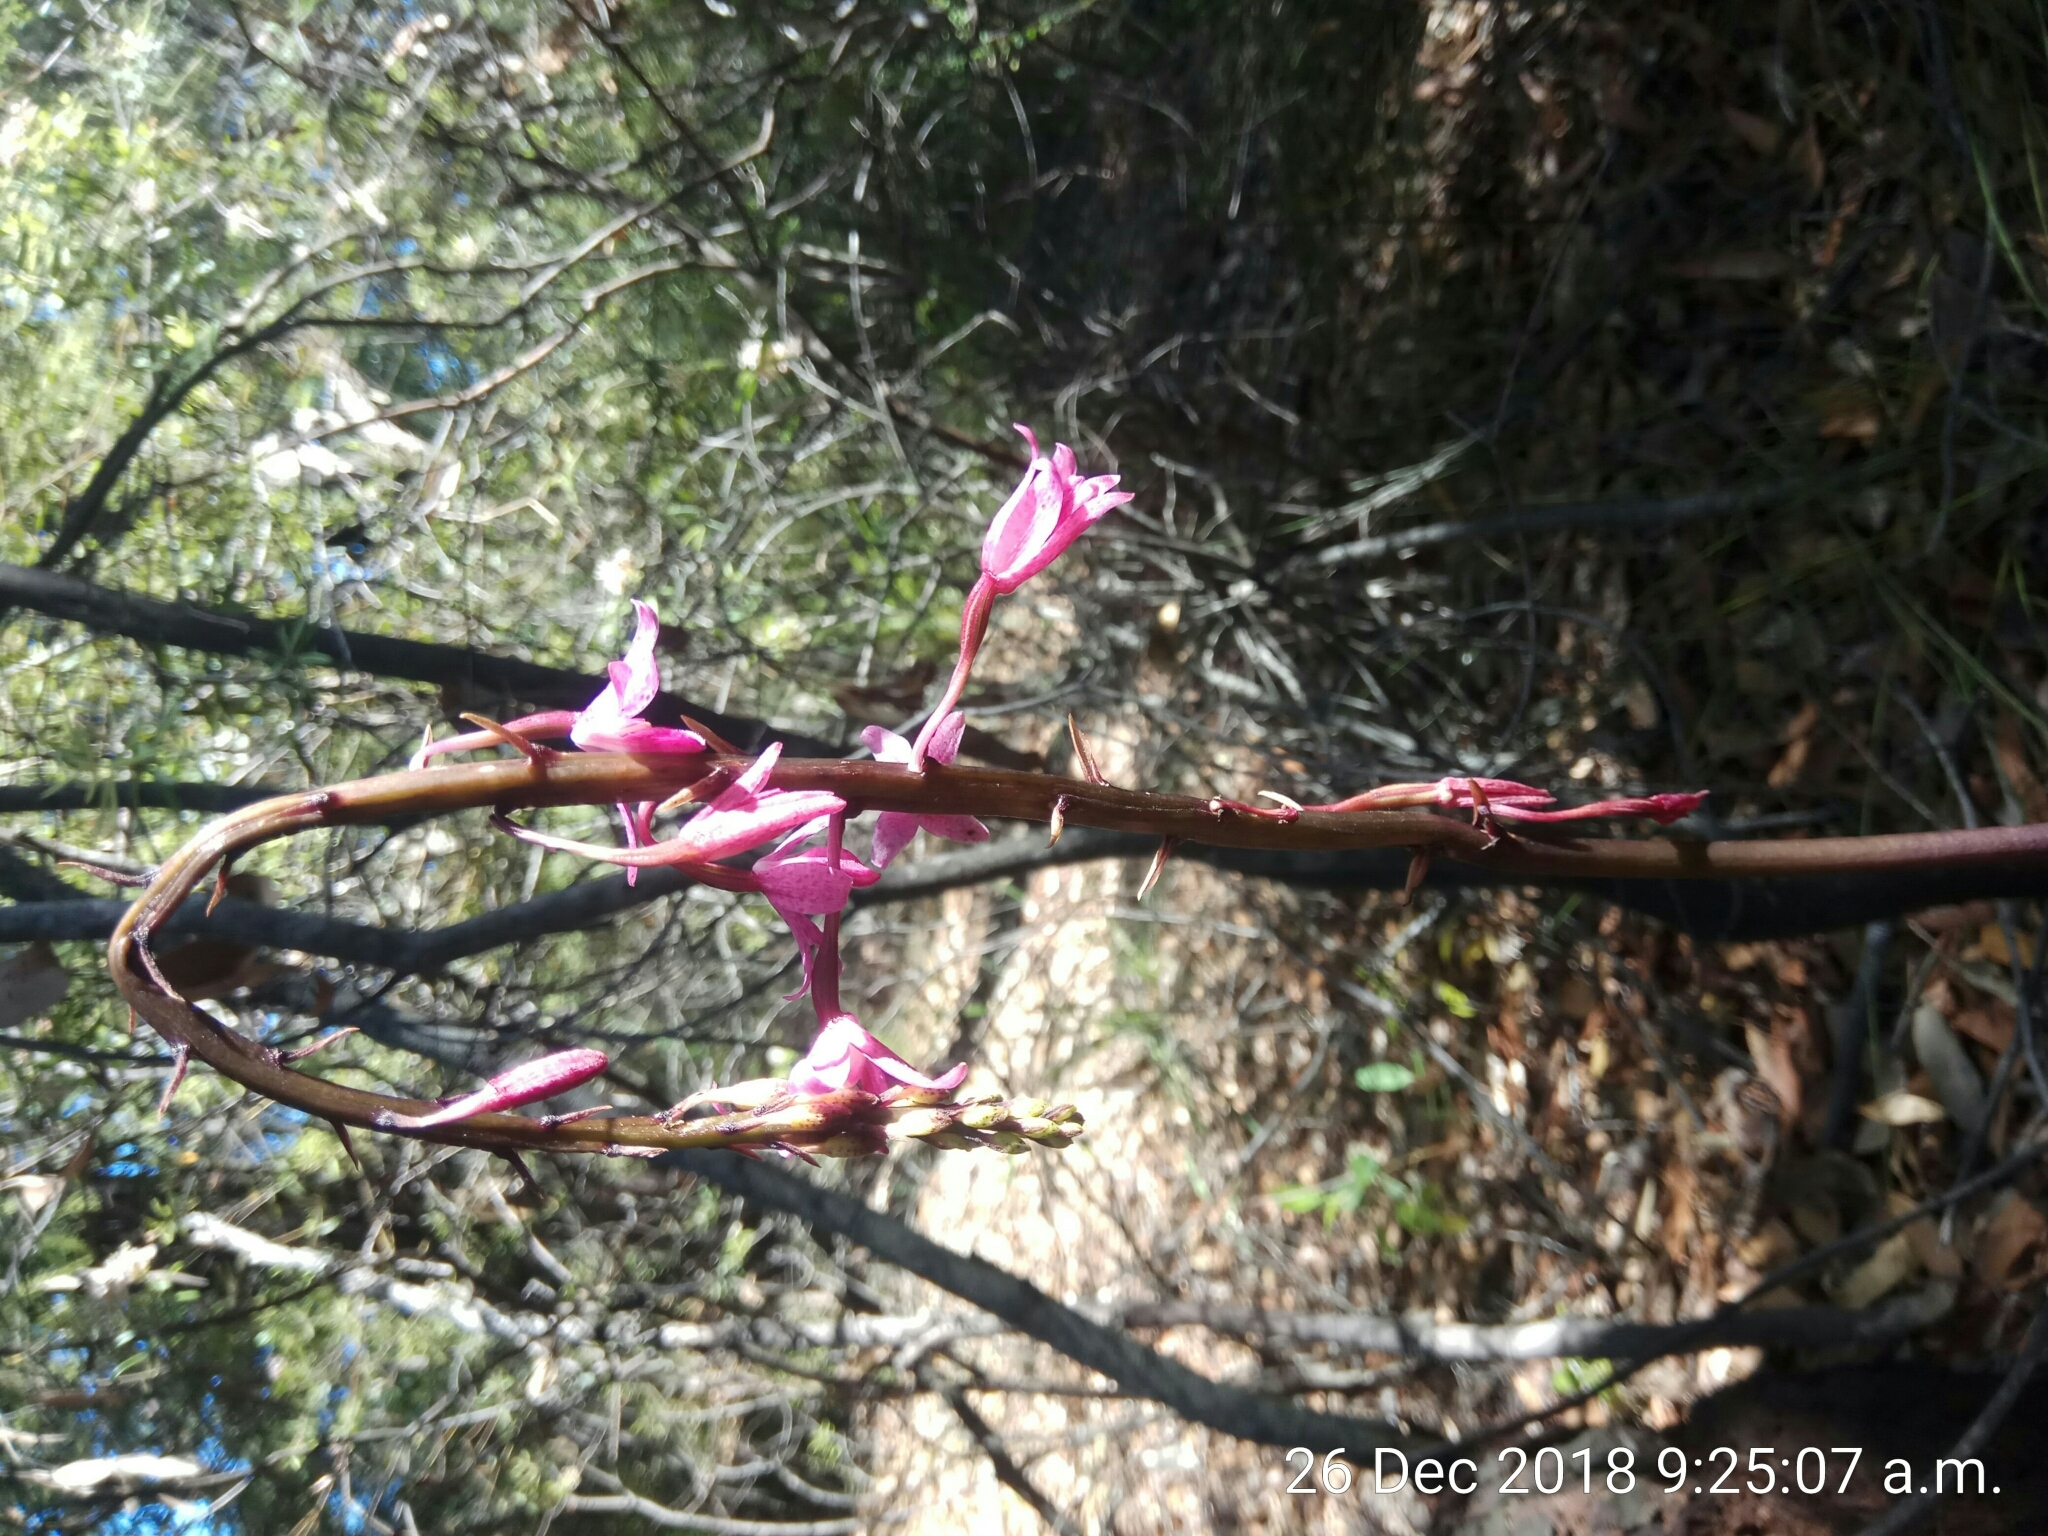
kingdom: Plantae
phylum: Tracheophyta
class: Liliopsida
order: Asparagales
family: Orchidaceae
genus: Dipodium
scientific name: Dipodium roseum
